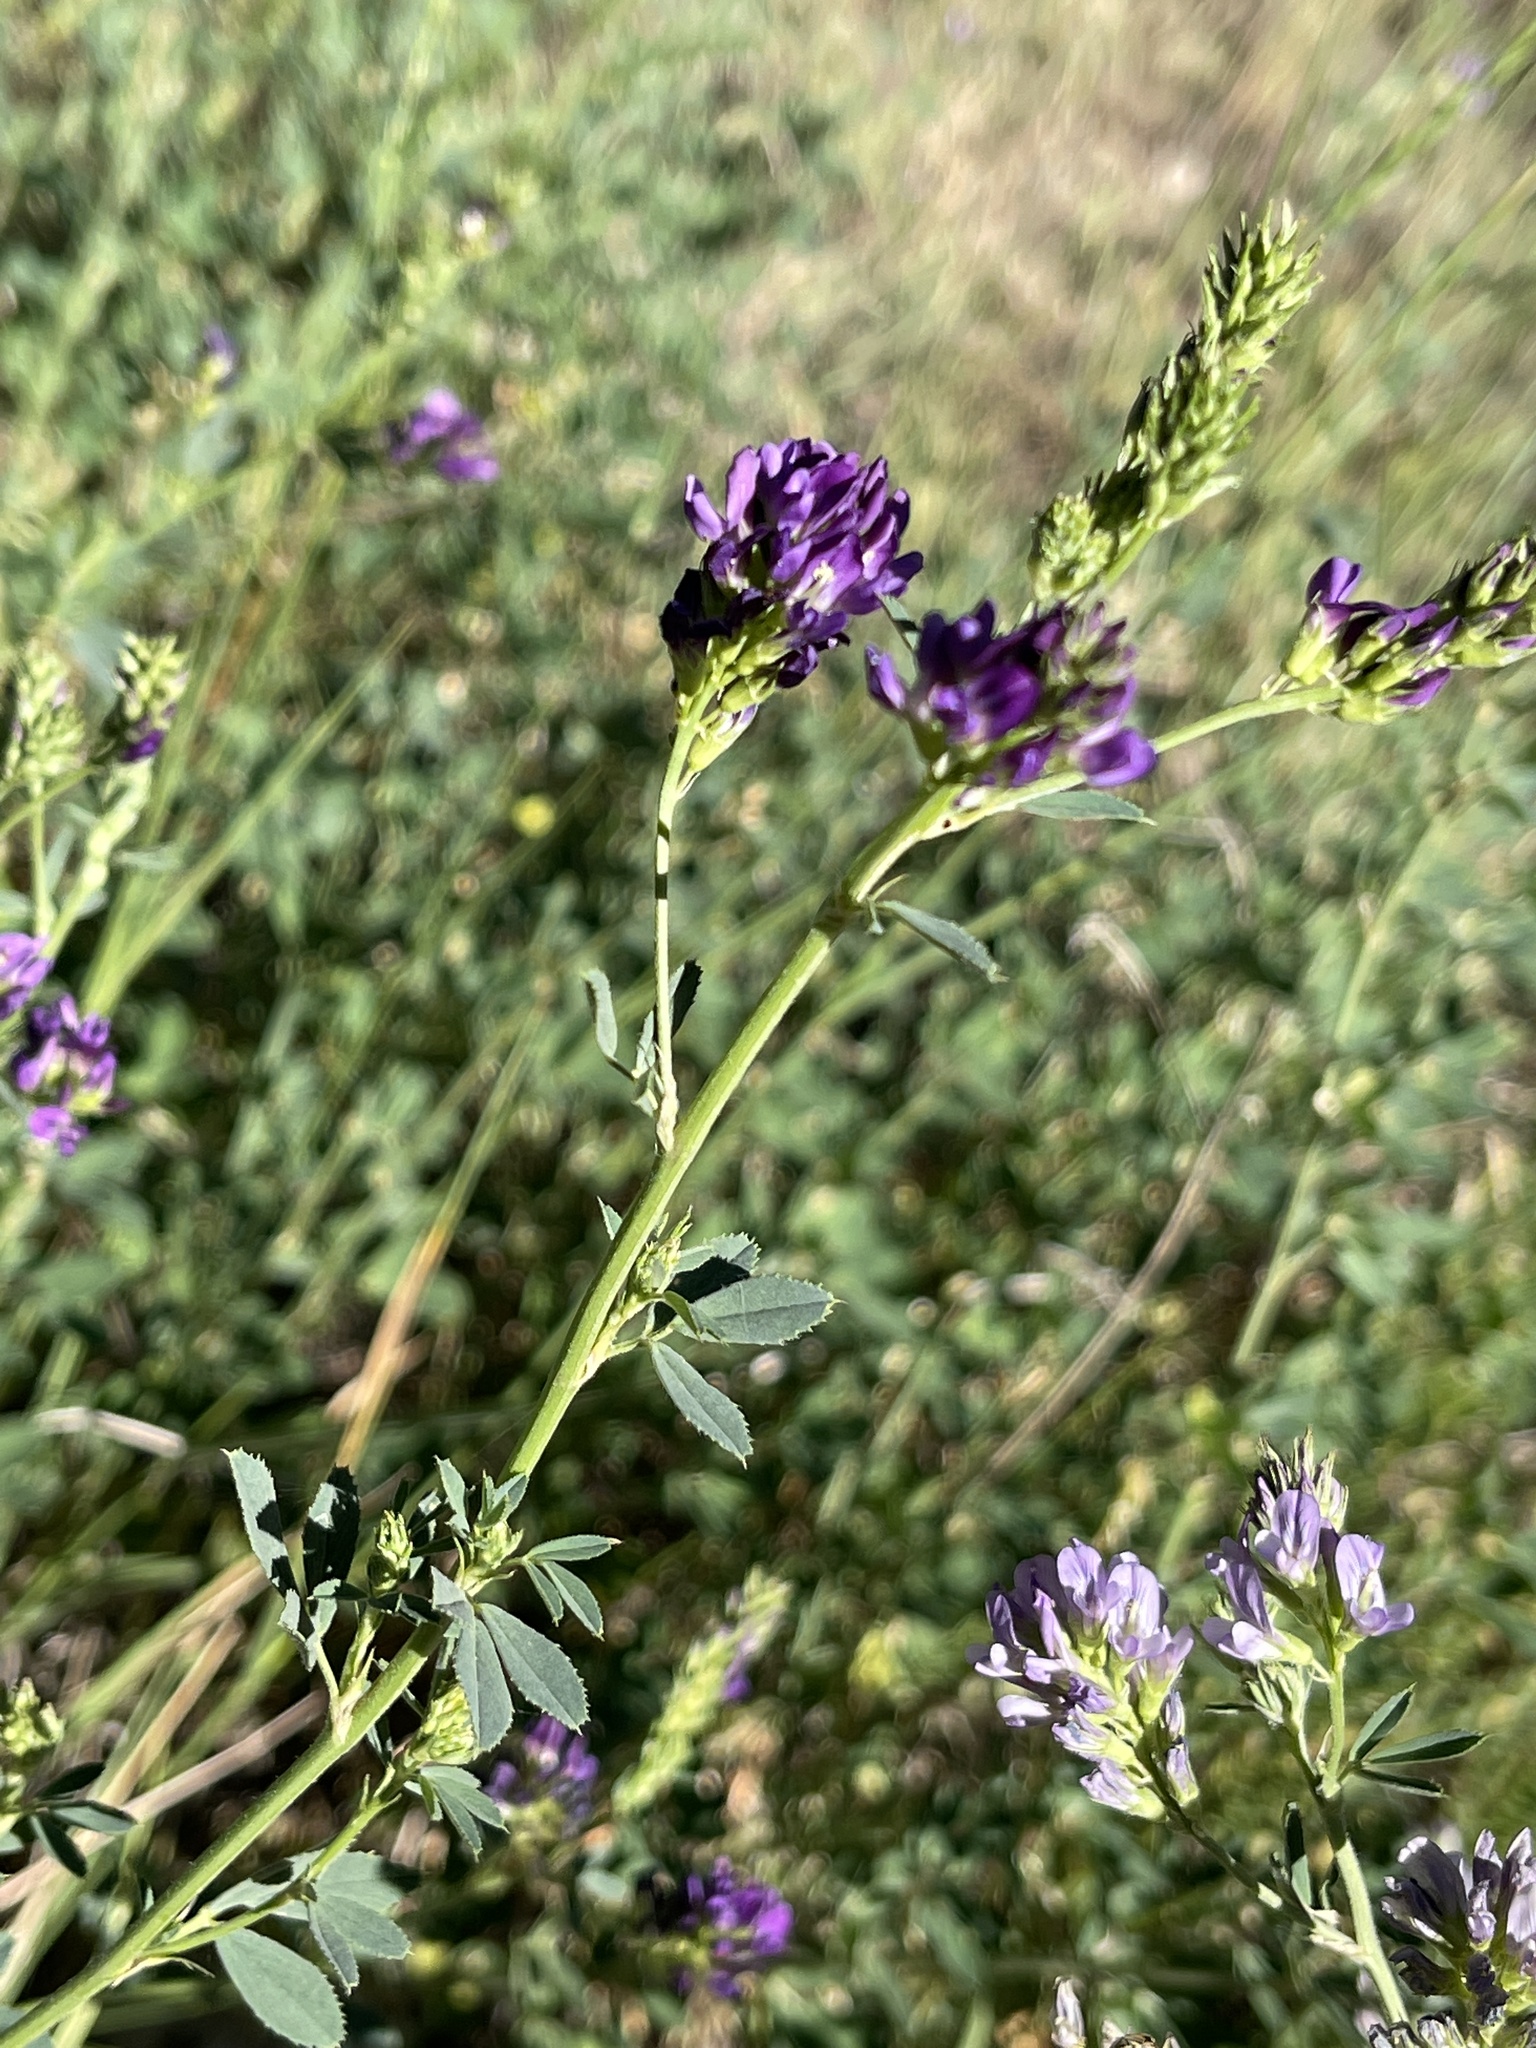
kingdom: Plantae
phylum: Tracheophyta
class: Magnoliopsida
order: Fabales
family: Fabaceae
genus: Medicago
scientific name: Medicago sativa
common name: Alfalfa
